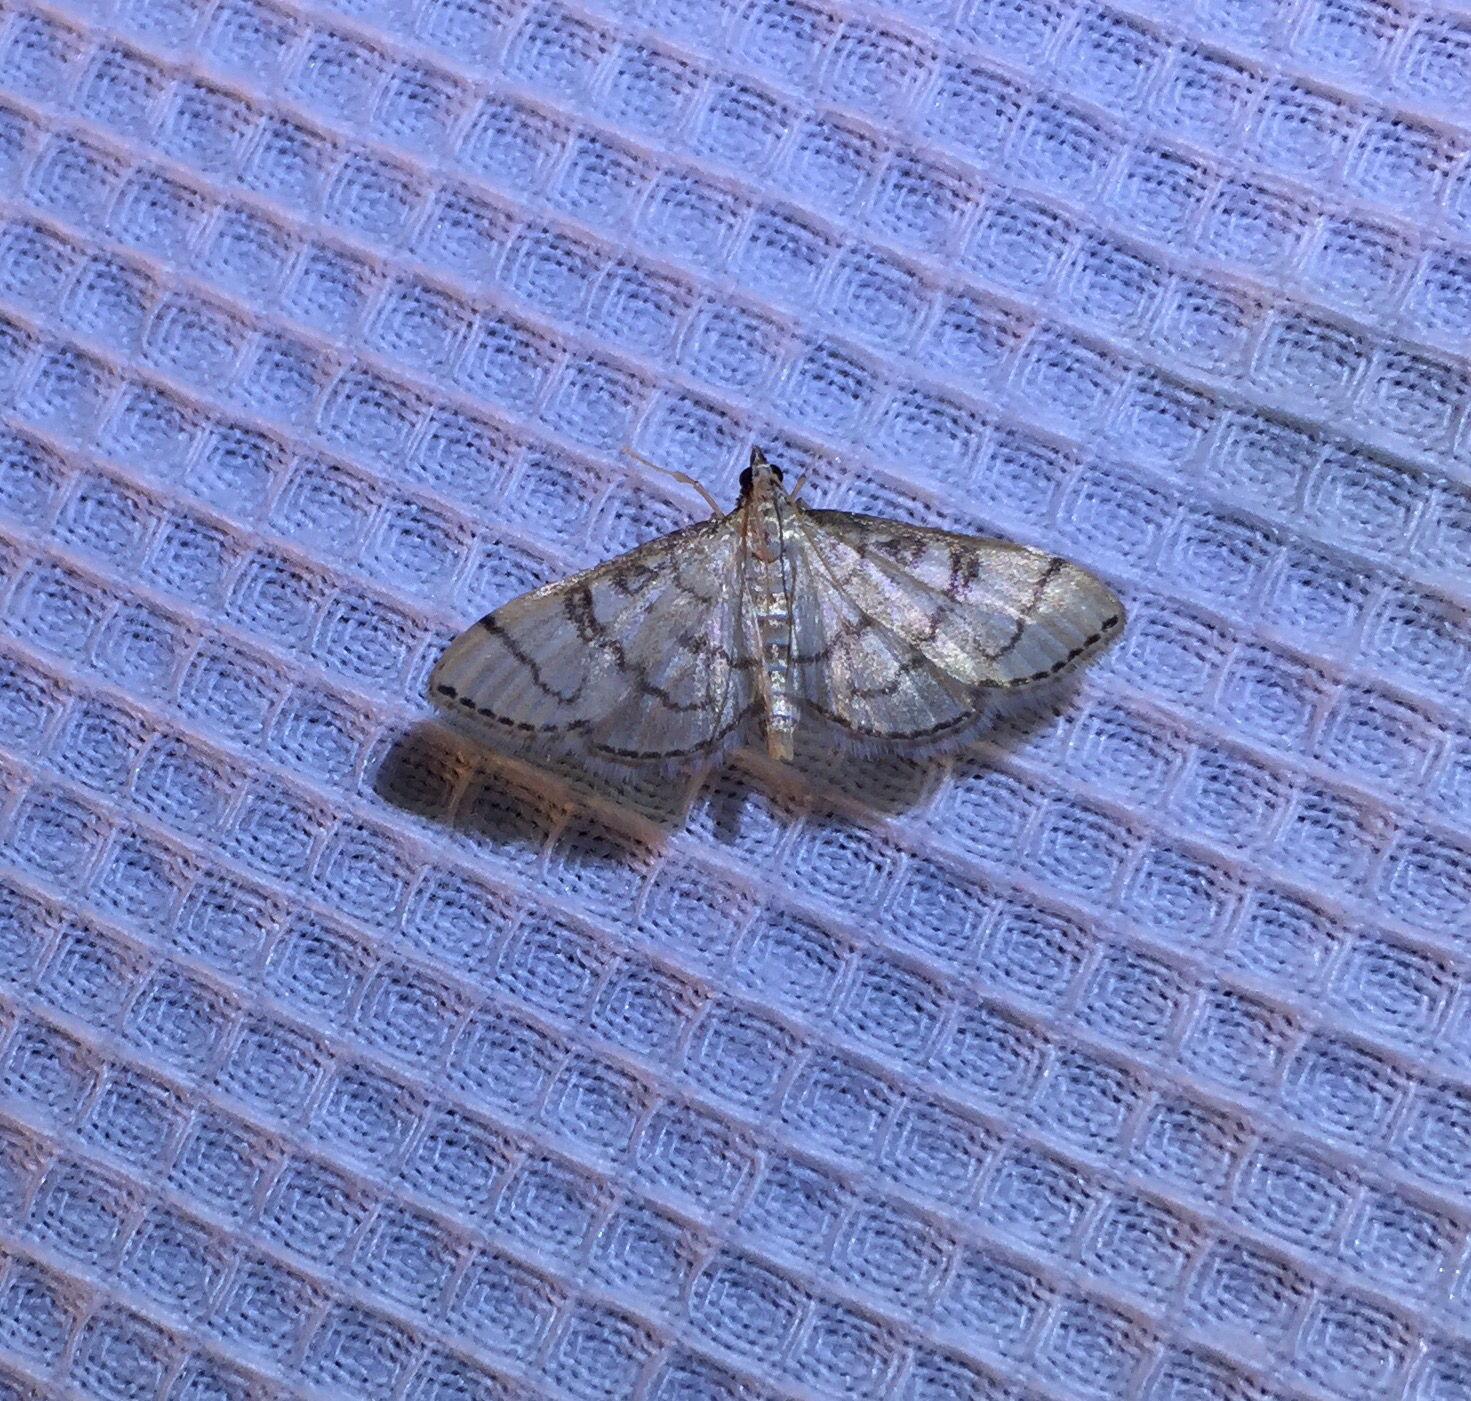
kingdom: Animalia
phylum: Arthropoda
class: Insecta
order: Lepidoptera
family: Crambidae
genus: Lamprosema
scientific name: Lamprosema Blepharomastix ranalis
